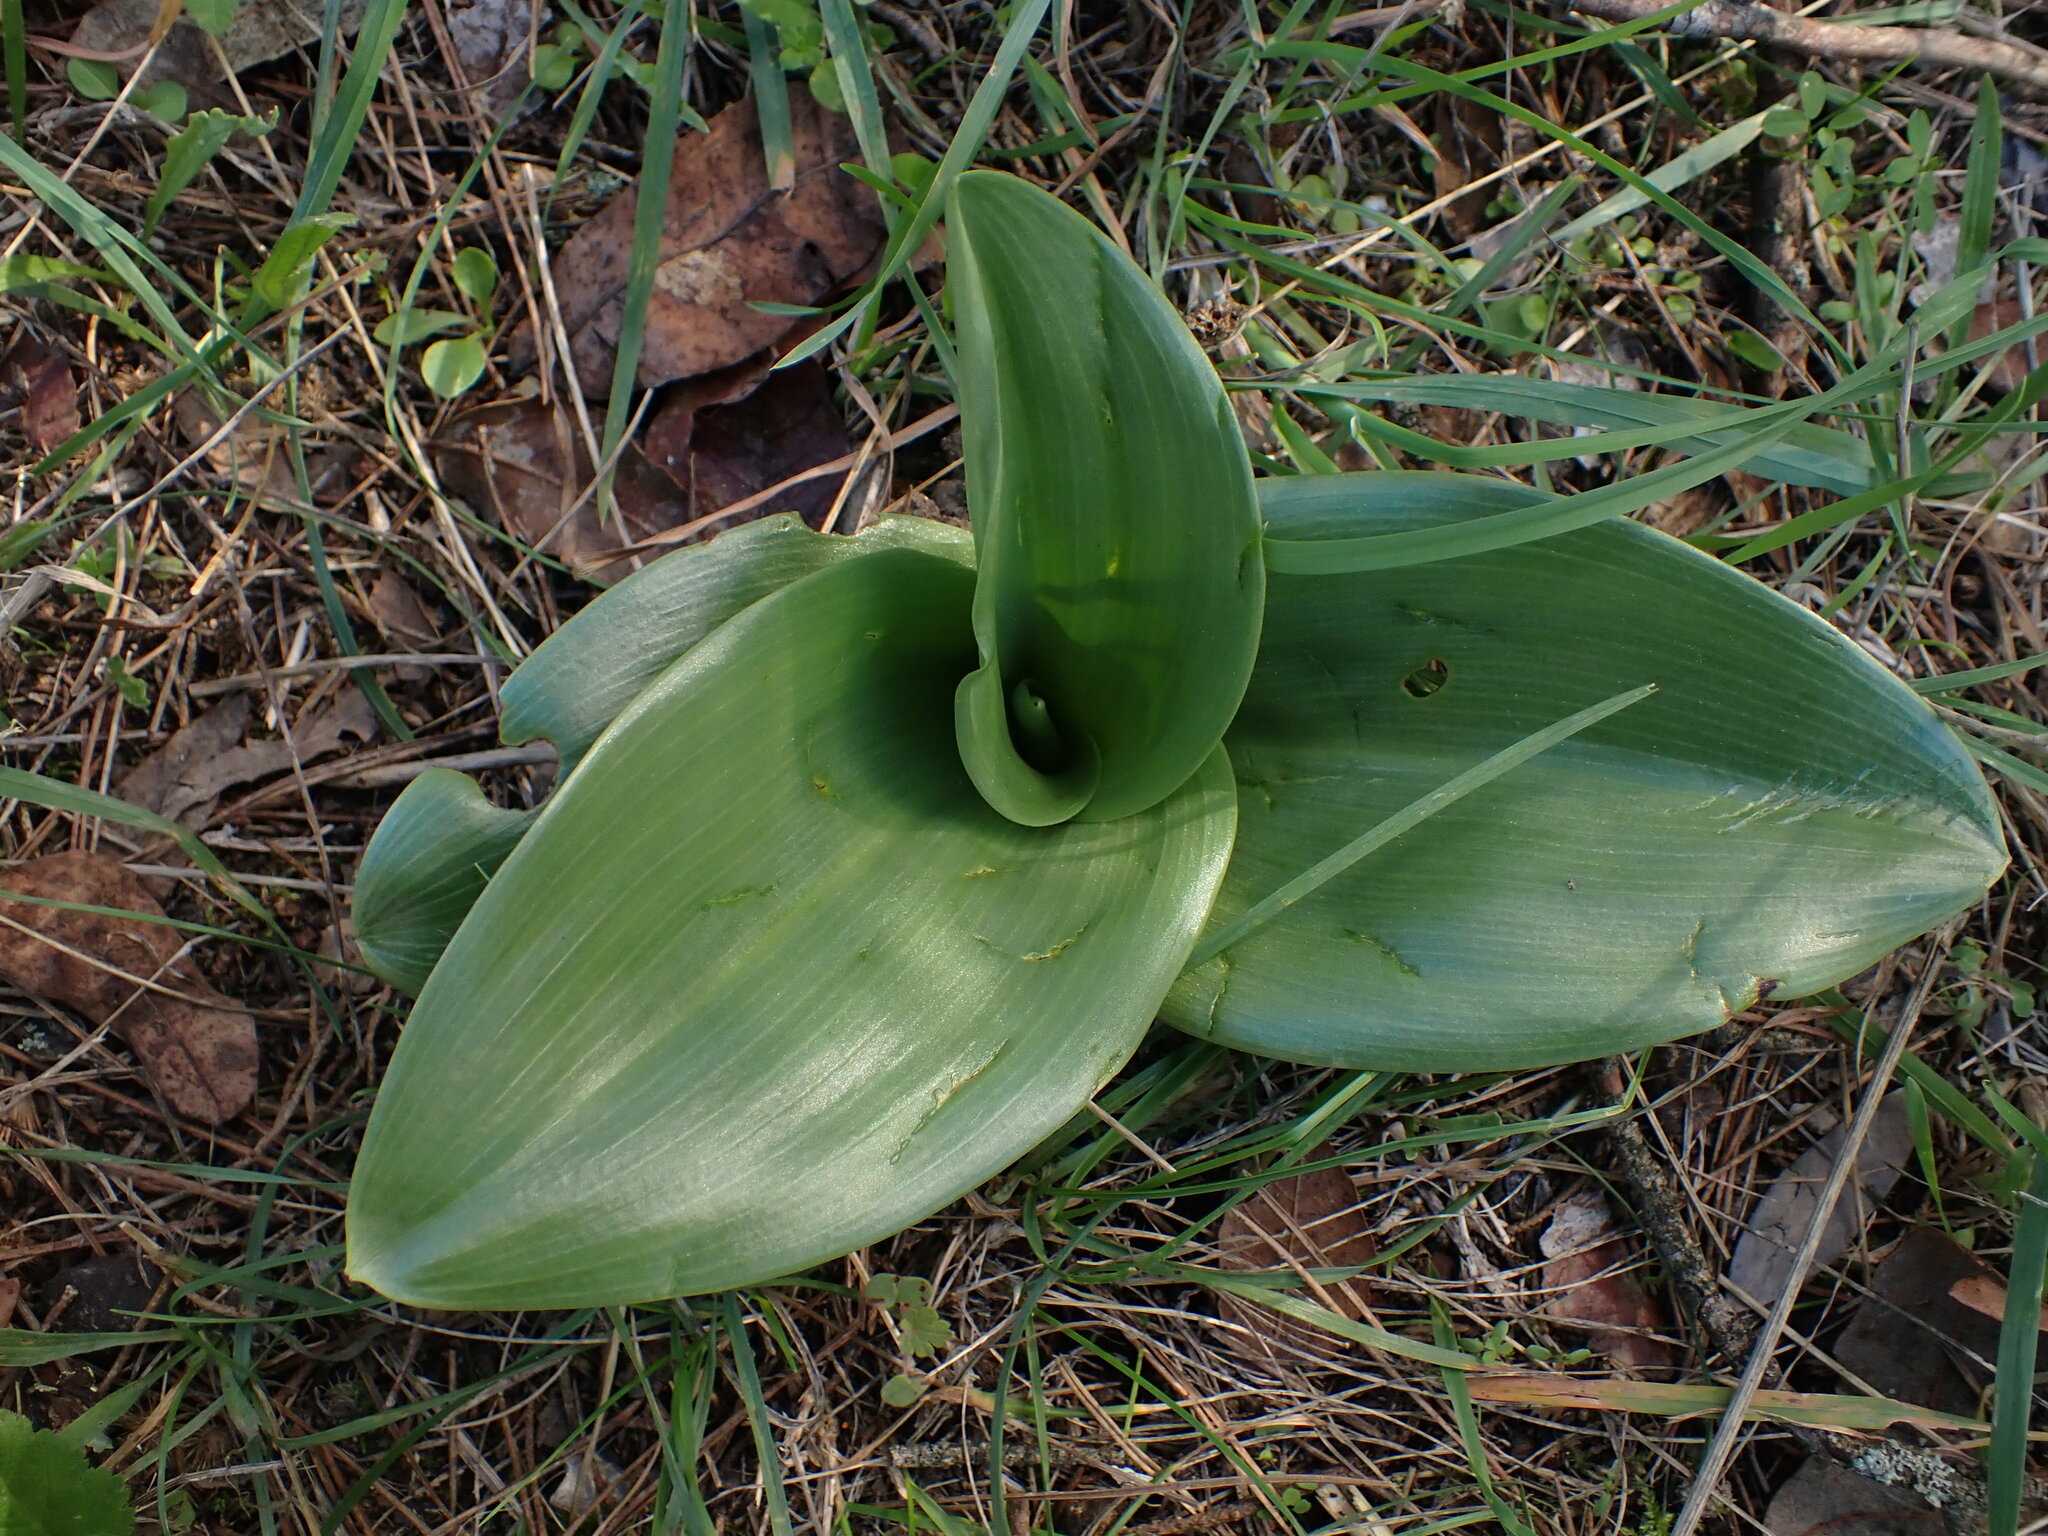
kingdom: Plantae
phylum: Tracheophyta
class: Liliopsida
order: Asparagales
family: Orchidaceae
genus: Himantoglossum
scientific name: Himantoglossum robertianum
